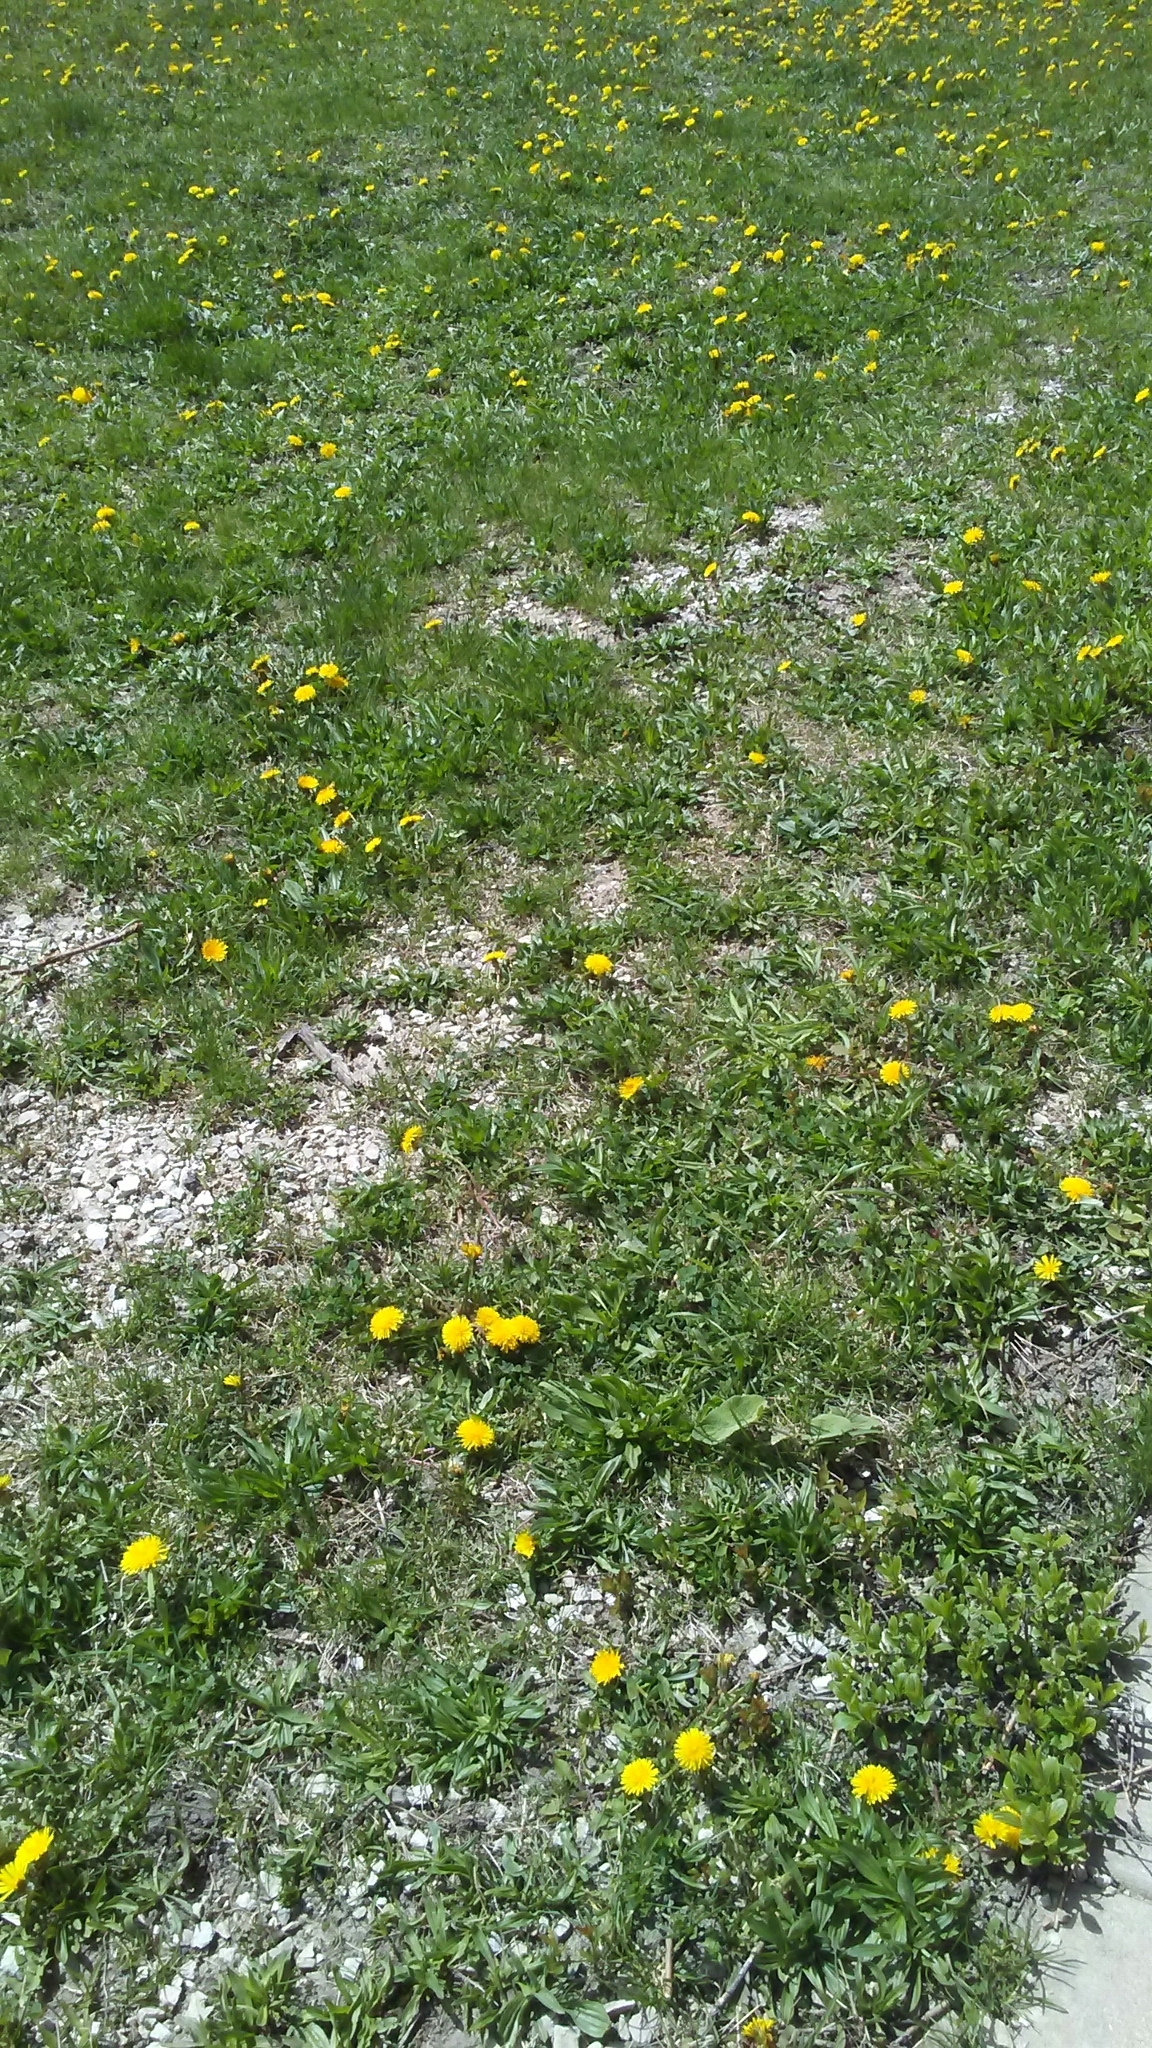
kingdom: Plantae
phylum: Tracheophyta
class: Magnoliopsida
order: Asterales
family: Asteraceae
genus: Taraxacum
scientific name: Taraxacum officinale
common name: Common dandelion
